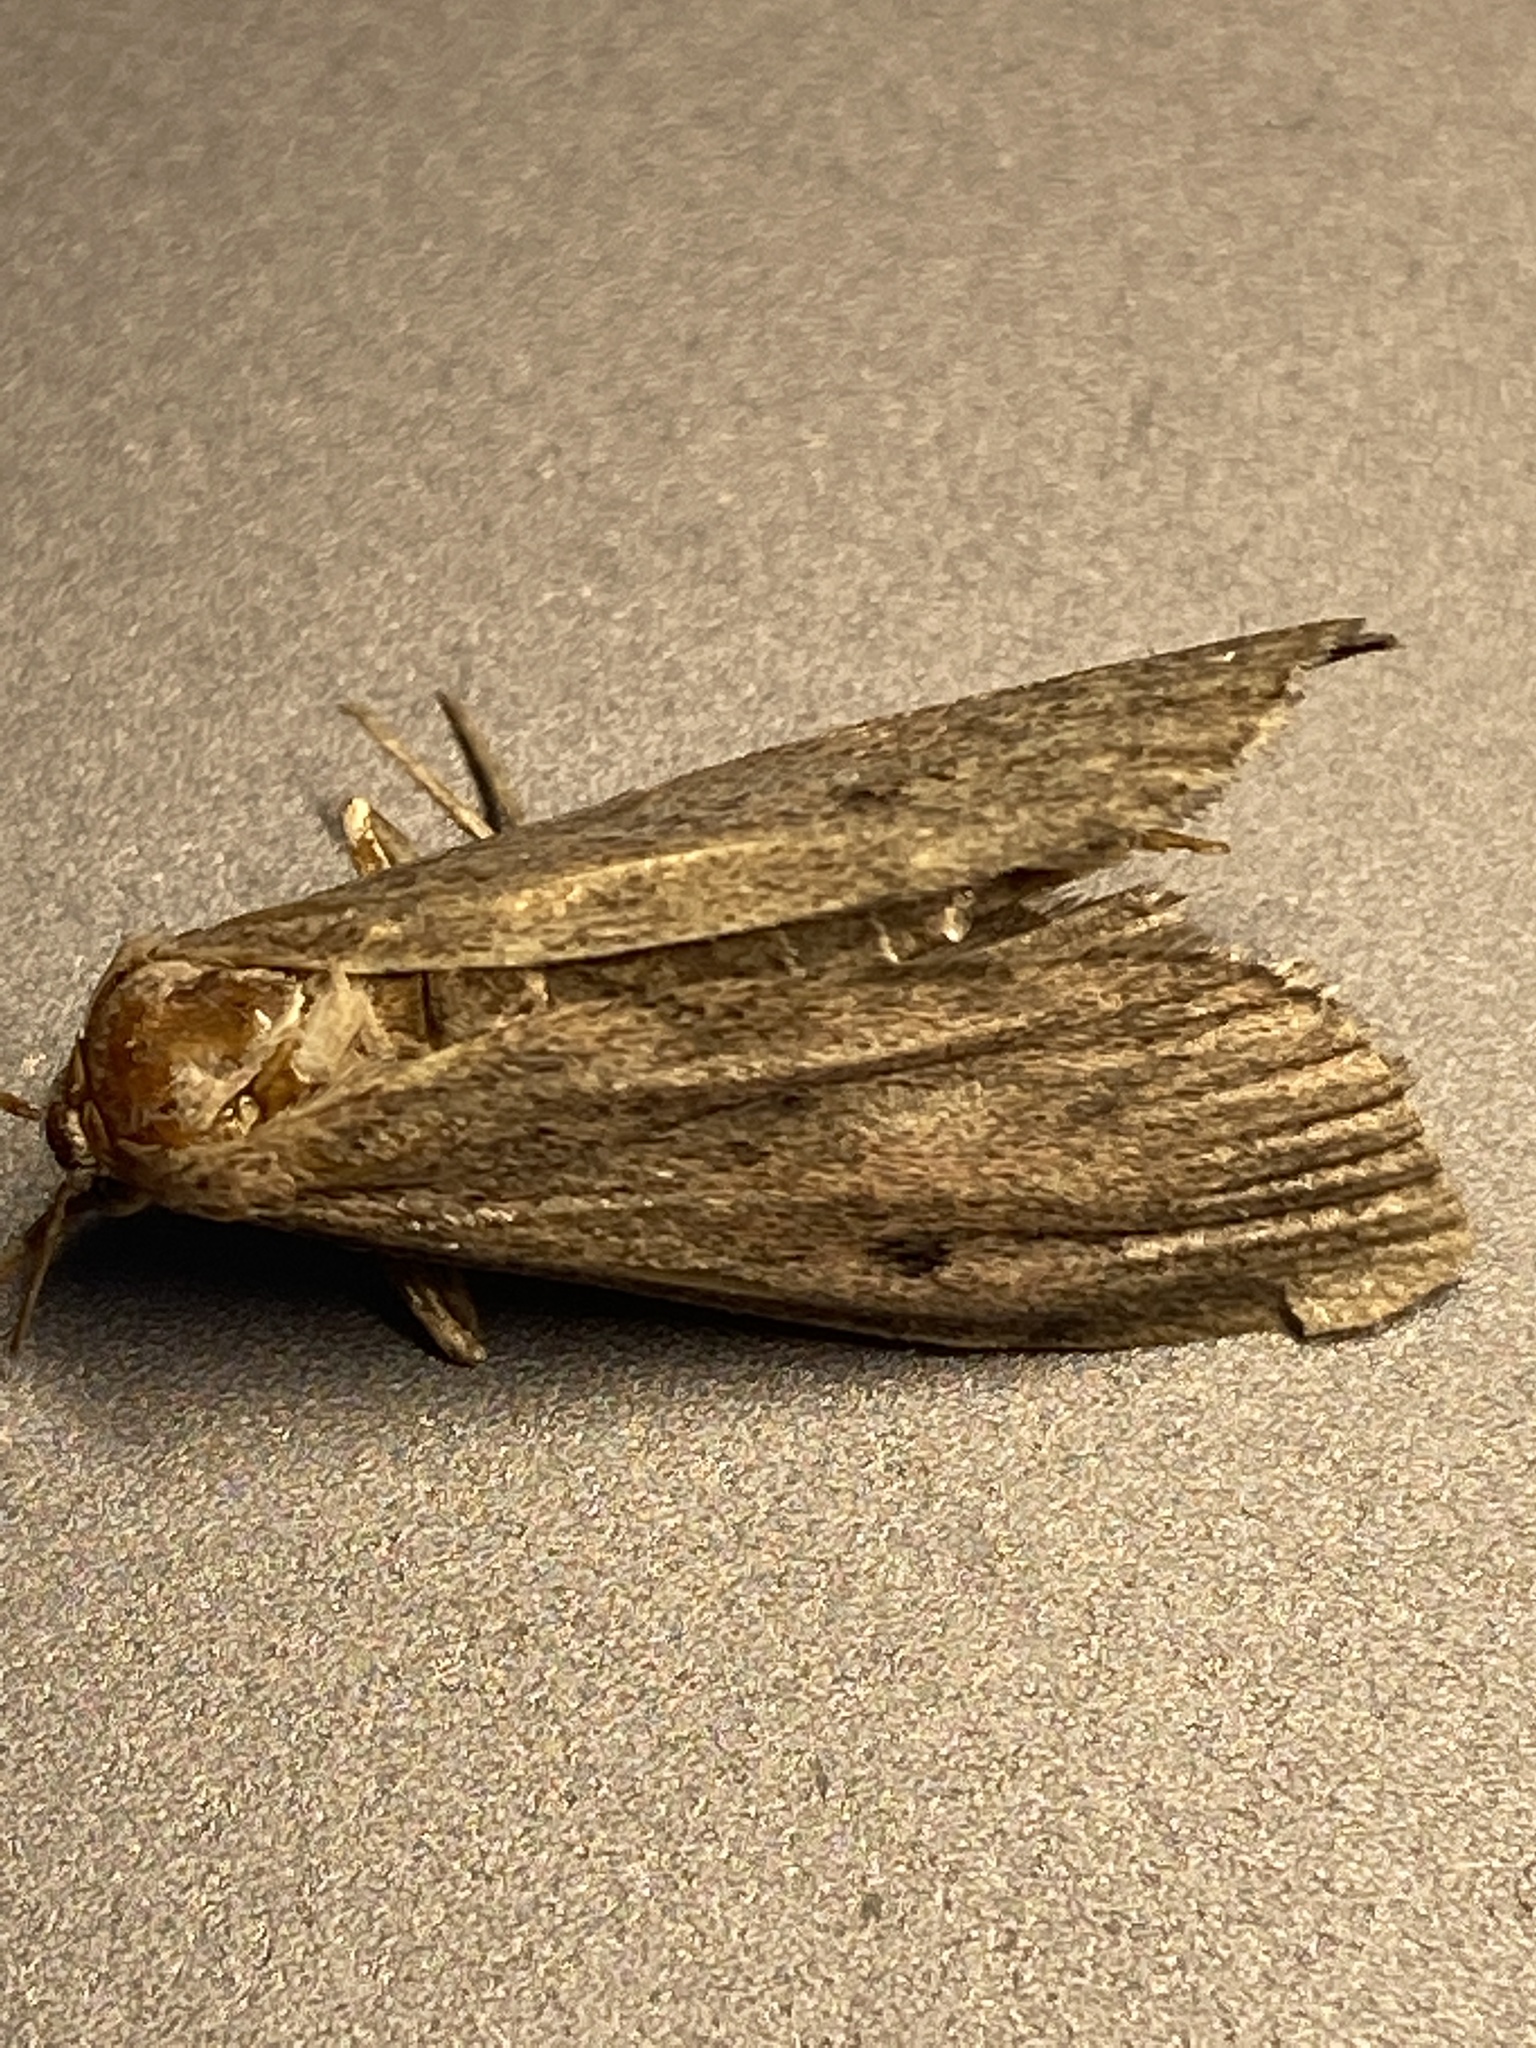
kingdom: Animalia
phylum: Arthropoda
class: Insecta
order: Lepidoptera
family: Pyralidae
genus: Aphomia
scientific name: Aphomia sociella
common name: Bee moth
